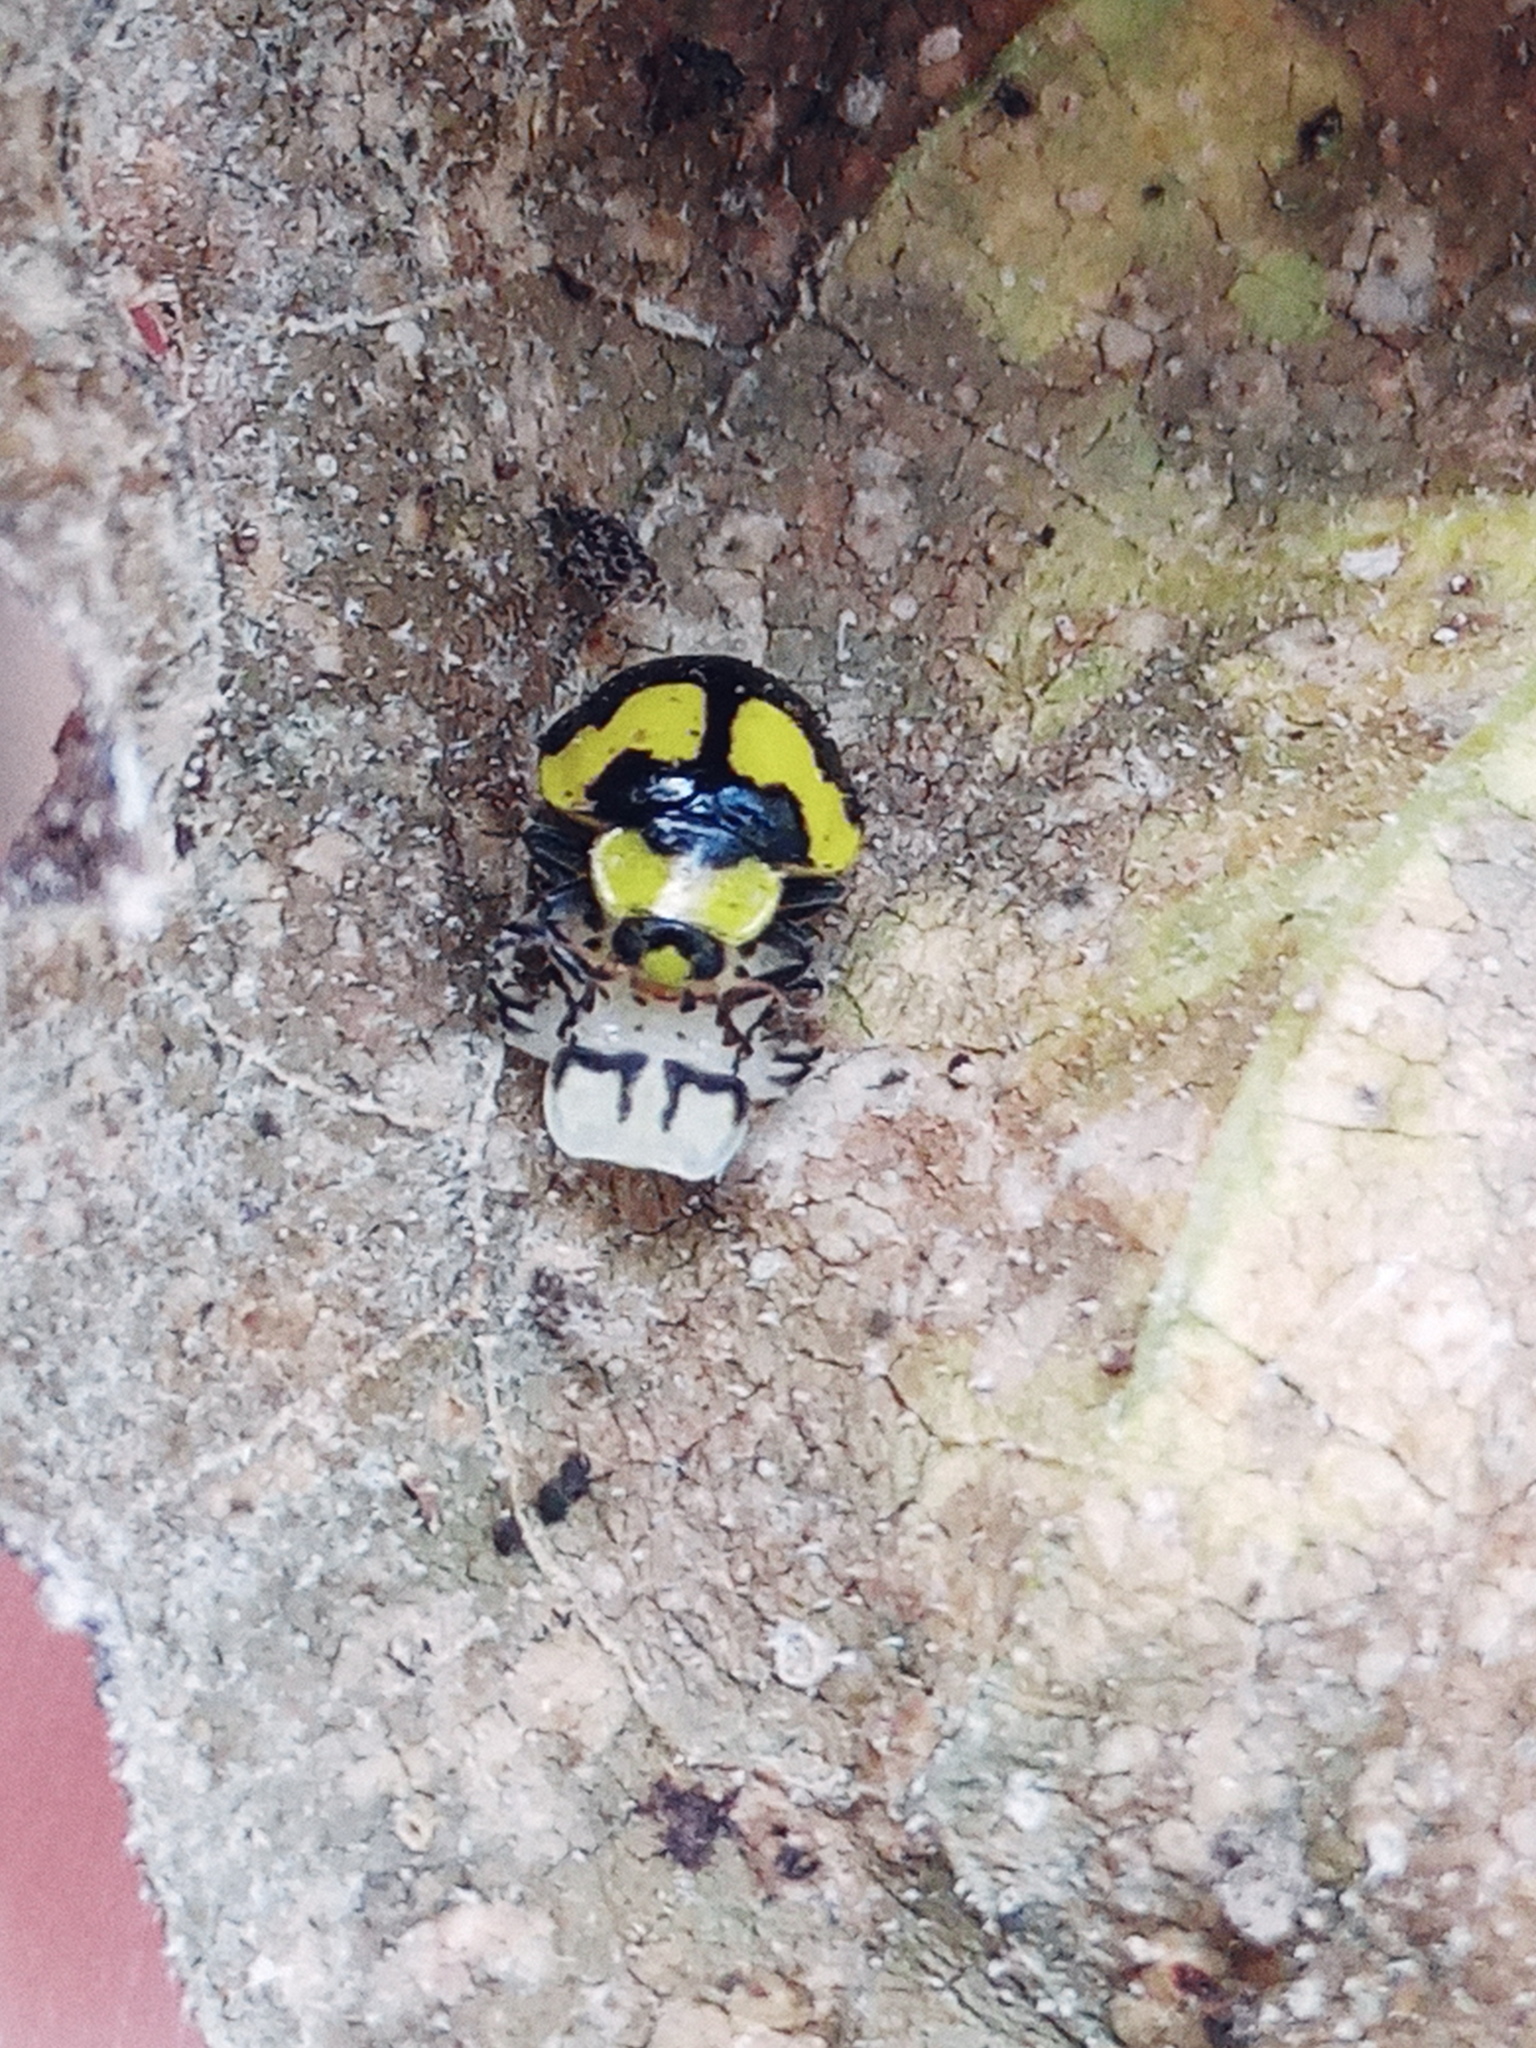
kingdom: Animalia
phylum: Arthropoda
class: Insecta
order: Coleoptera
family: Coccinellidae
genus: Illeis
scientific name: Illeis galbula
